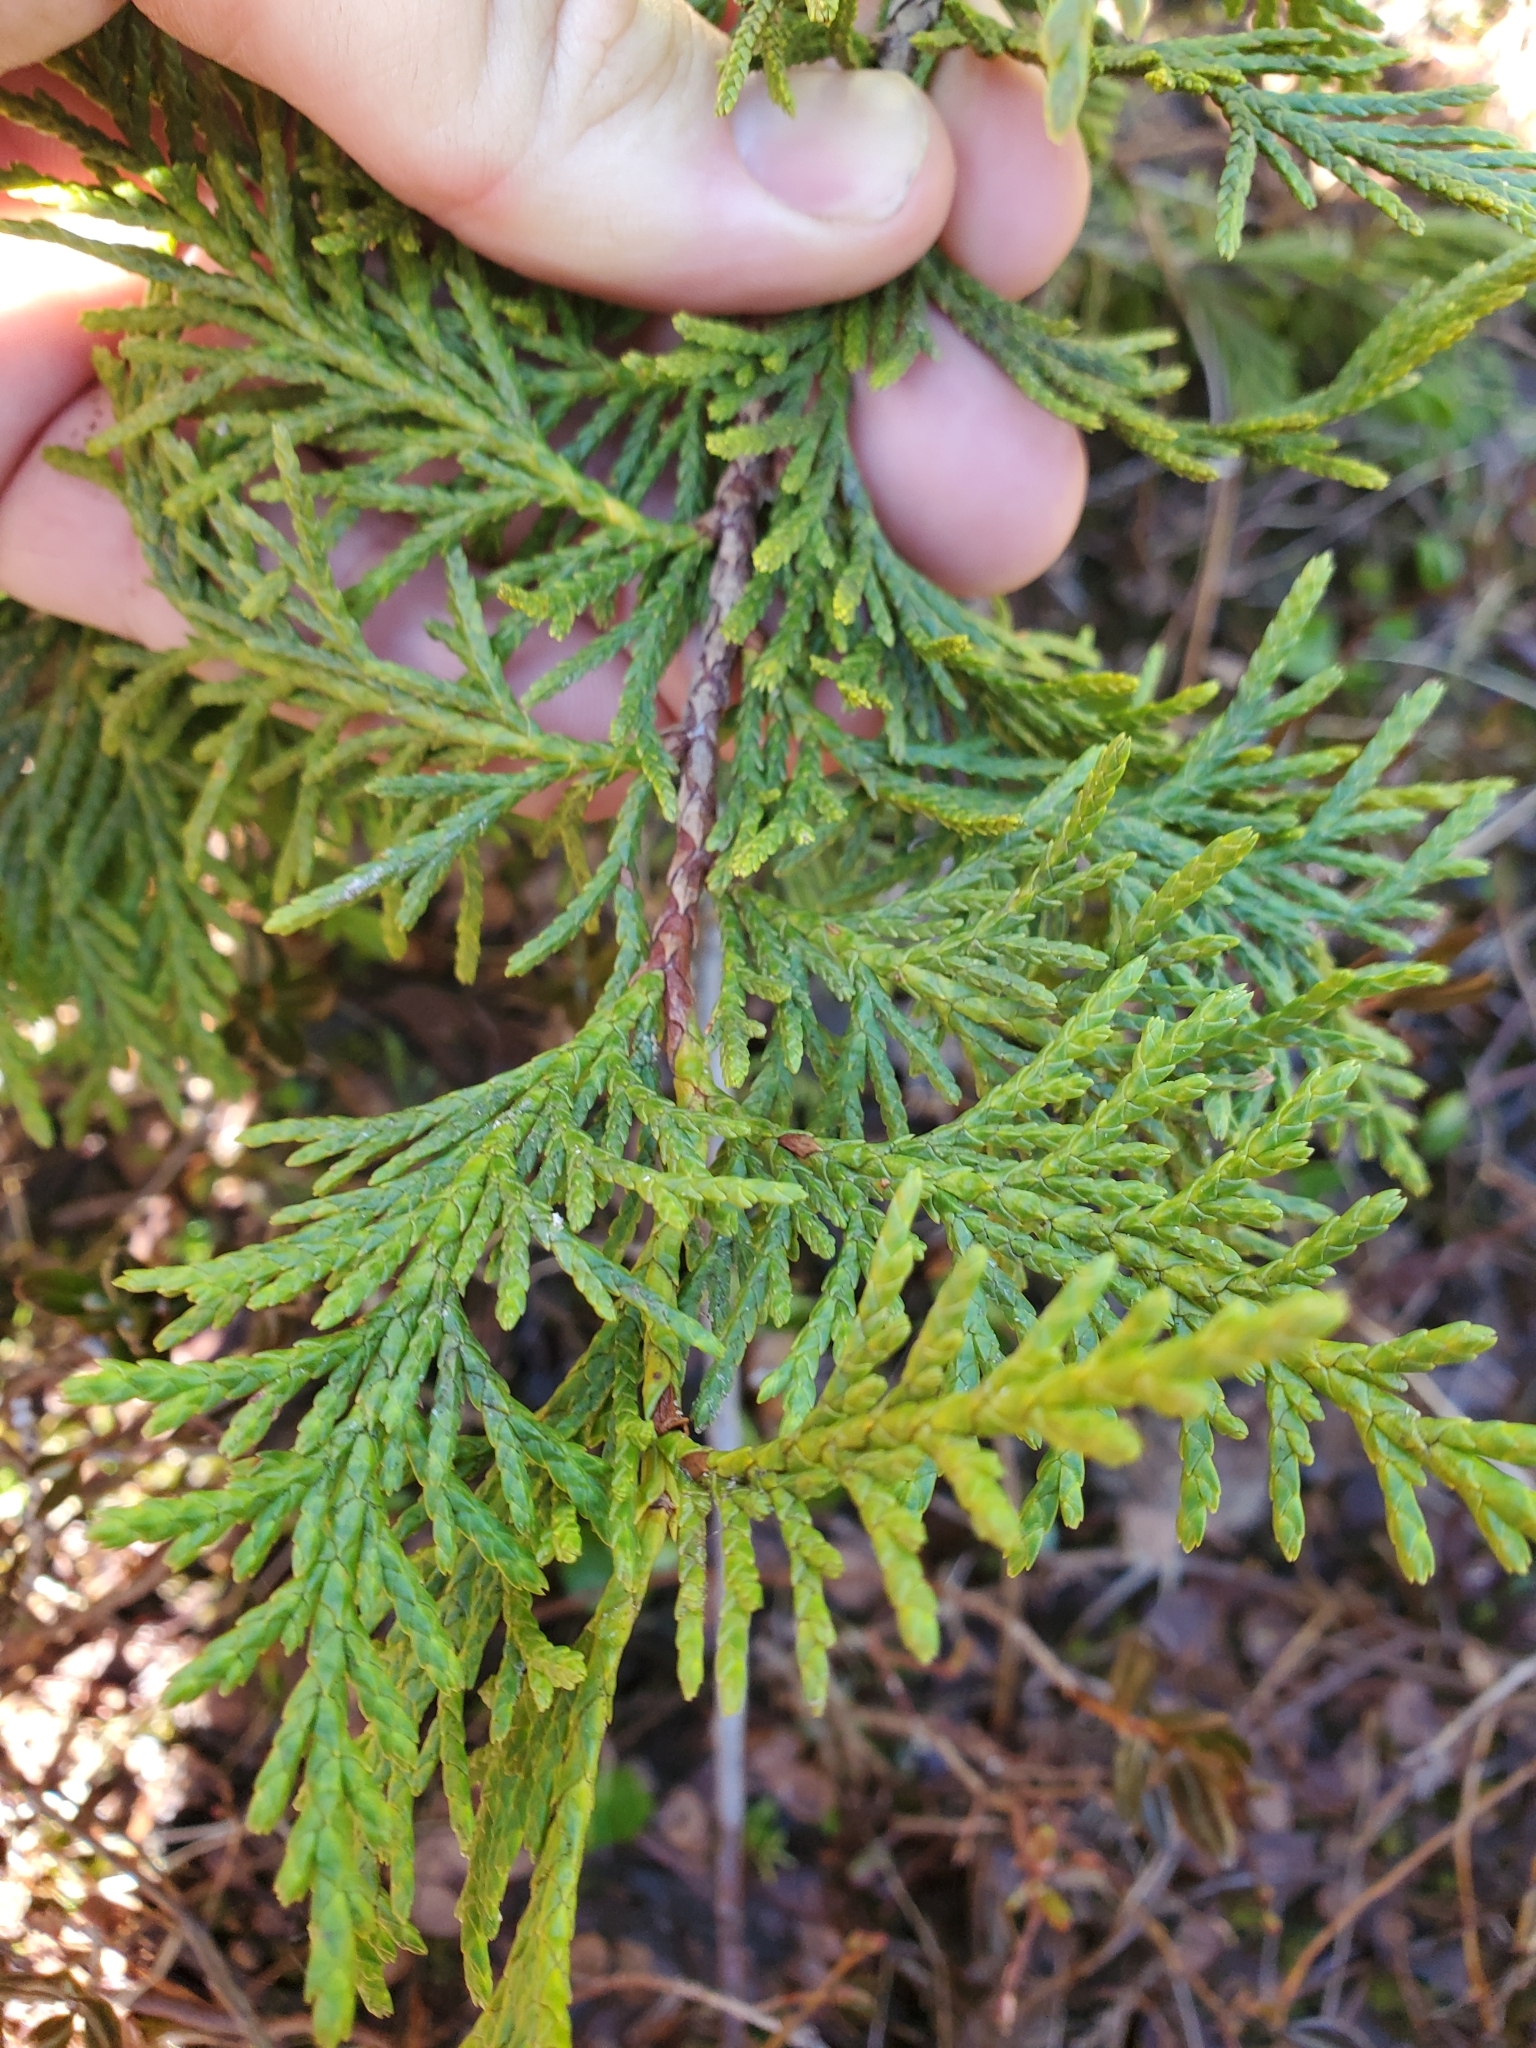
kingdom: Plantae
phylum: Tracheophyta
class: Pinopsida
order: Pinales
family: Cupressaceae
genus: Xanthocyparis
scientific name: Xanthocyparis nootkatensis
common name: Nootka cypress
